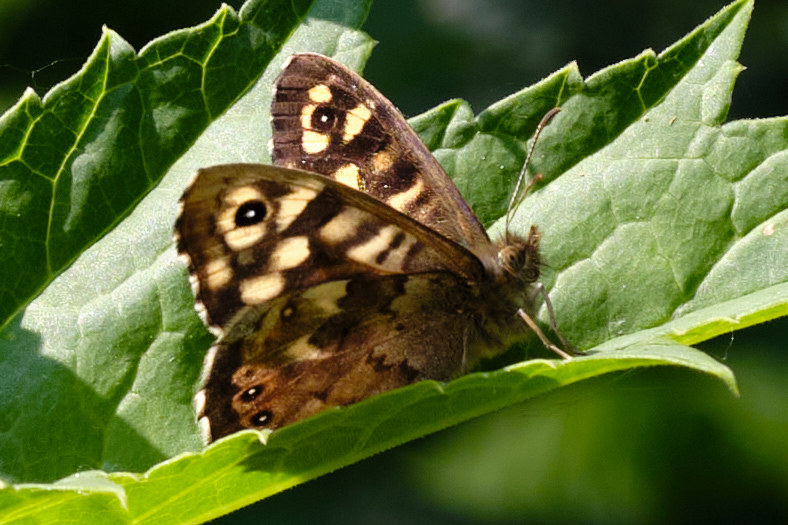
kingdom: Animalia
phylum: Arthropoda
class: Insecta
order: Lepidoptera
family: Nymphalidae
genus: Pararge
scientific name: Pararge aegeria
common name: Speckled wood
